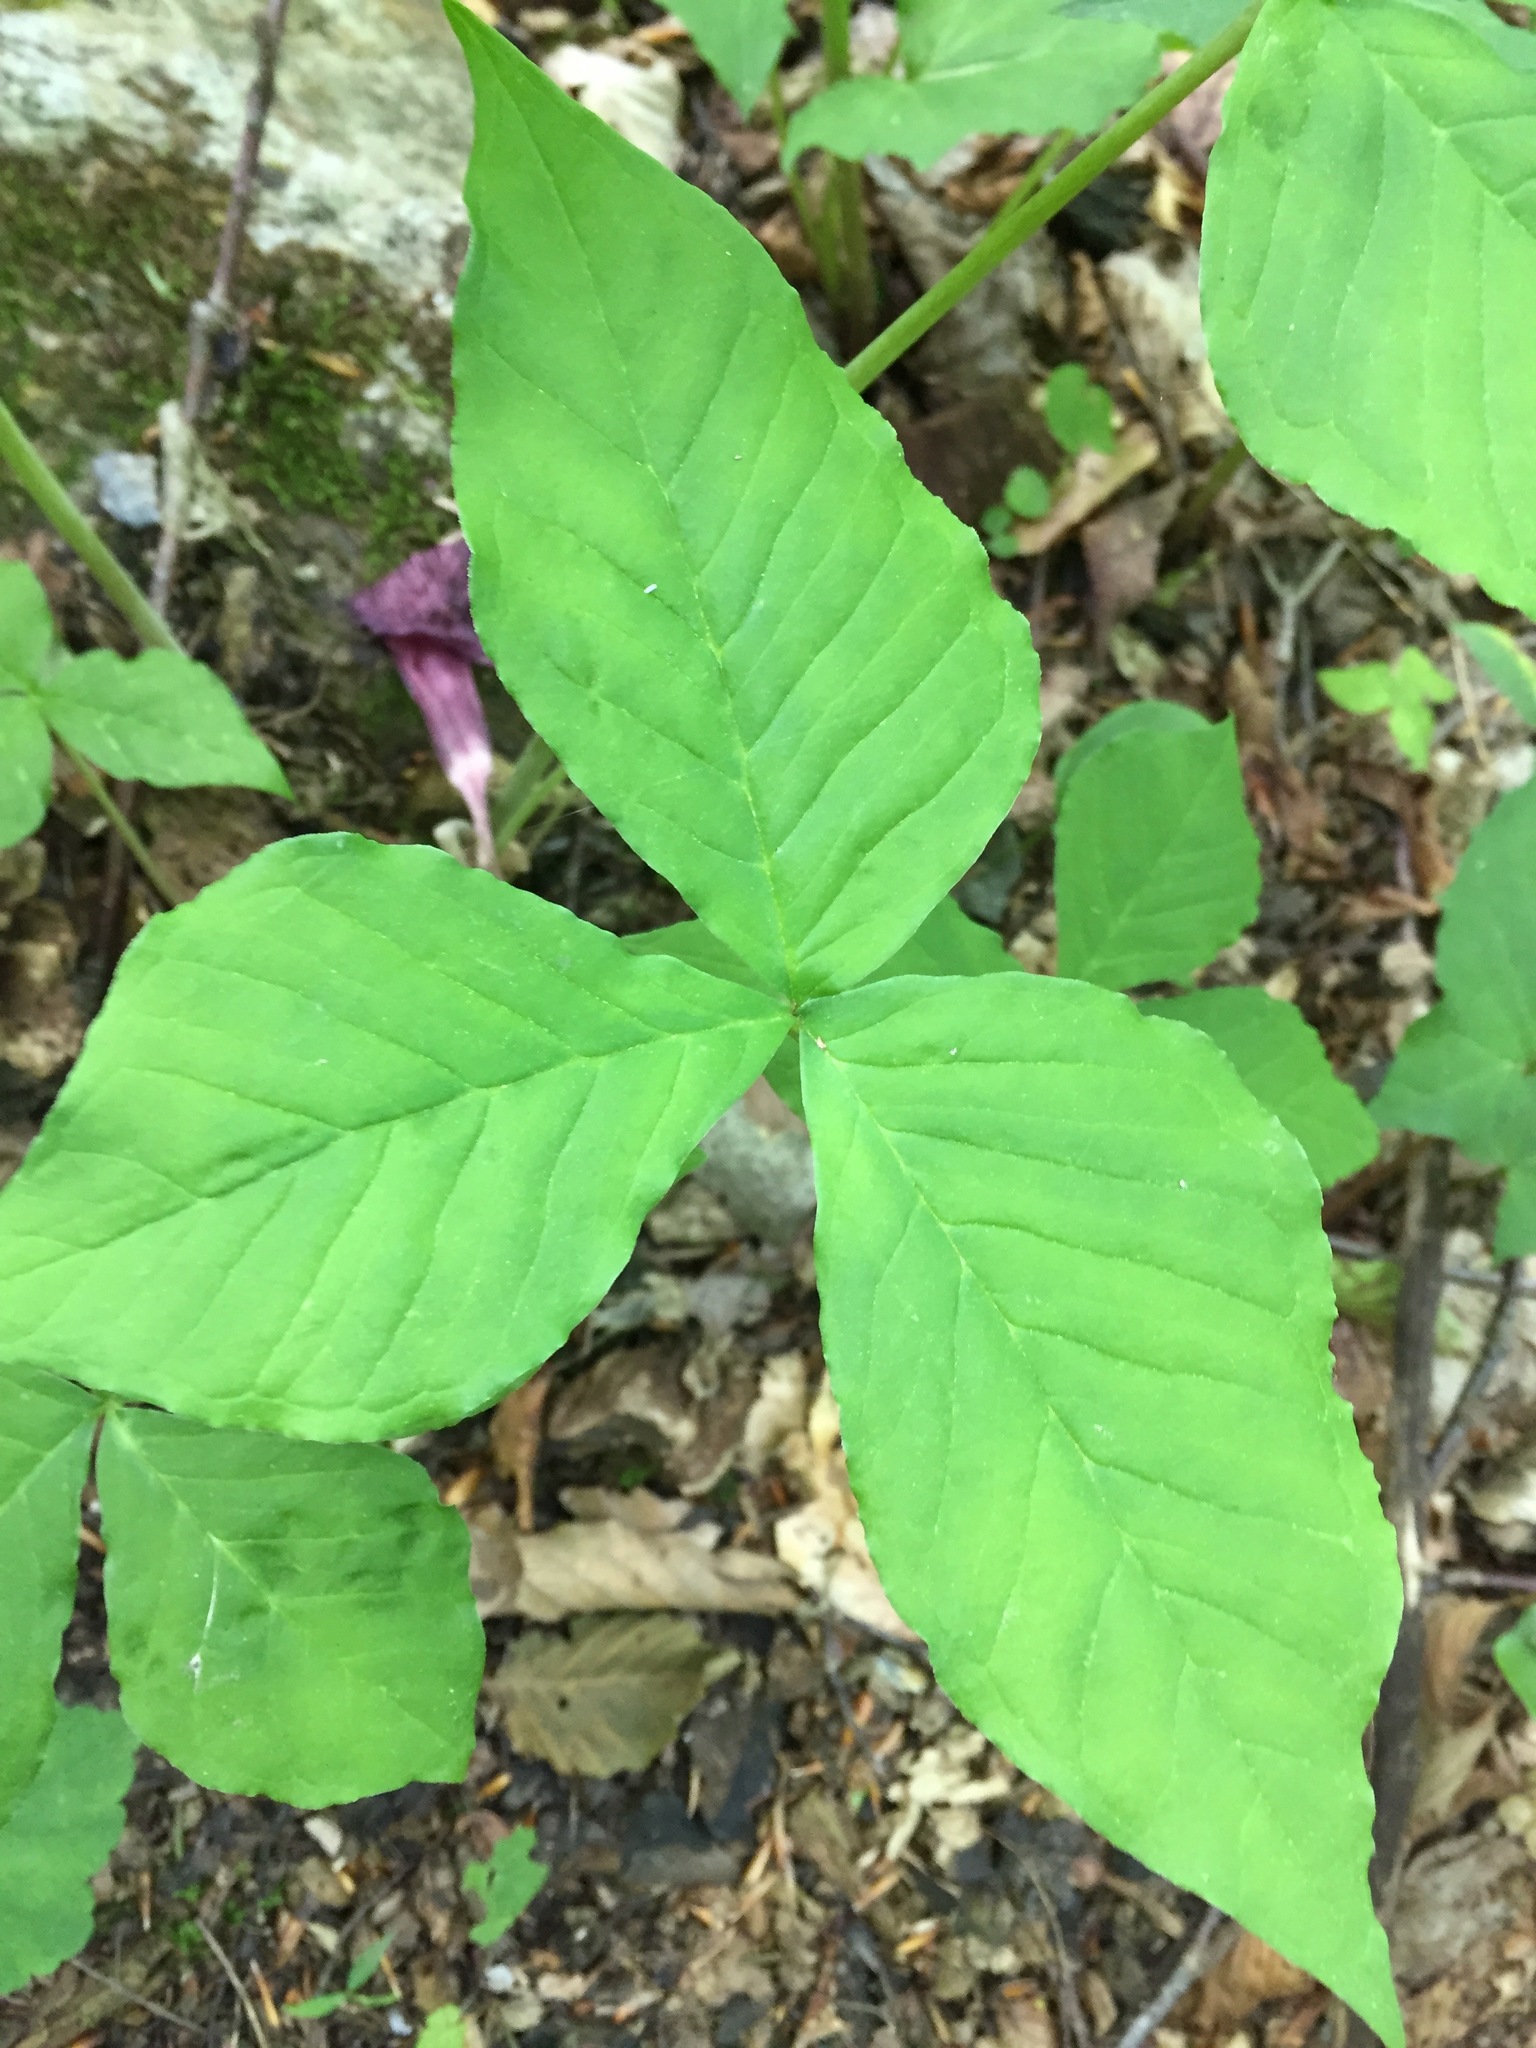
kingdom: Plantae
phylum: Tracheophyta
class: Liliopsida
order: Alismatales
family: Araceae
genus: Arisaema
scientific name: Arisaema triphyllum
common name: Jack-in-the-pulpit
